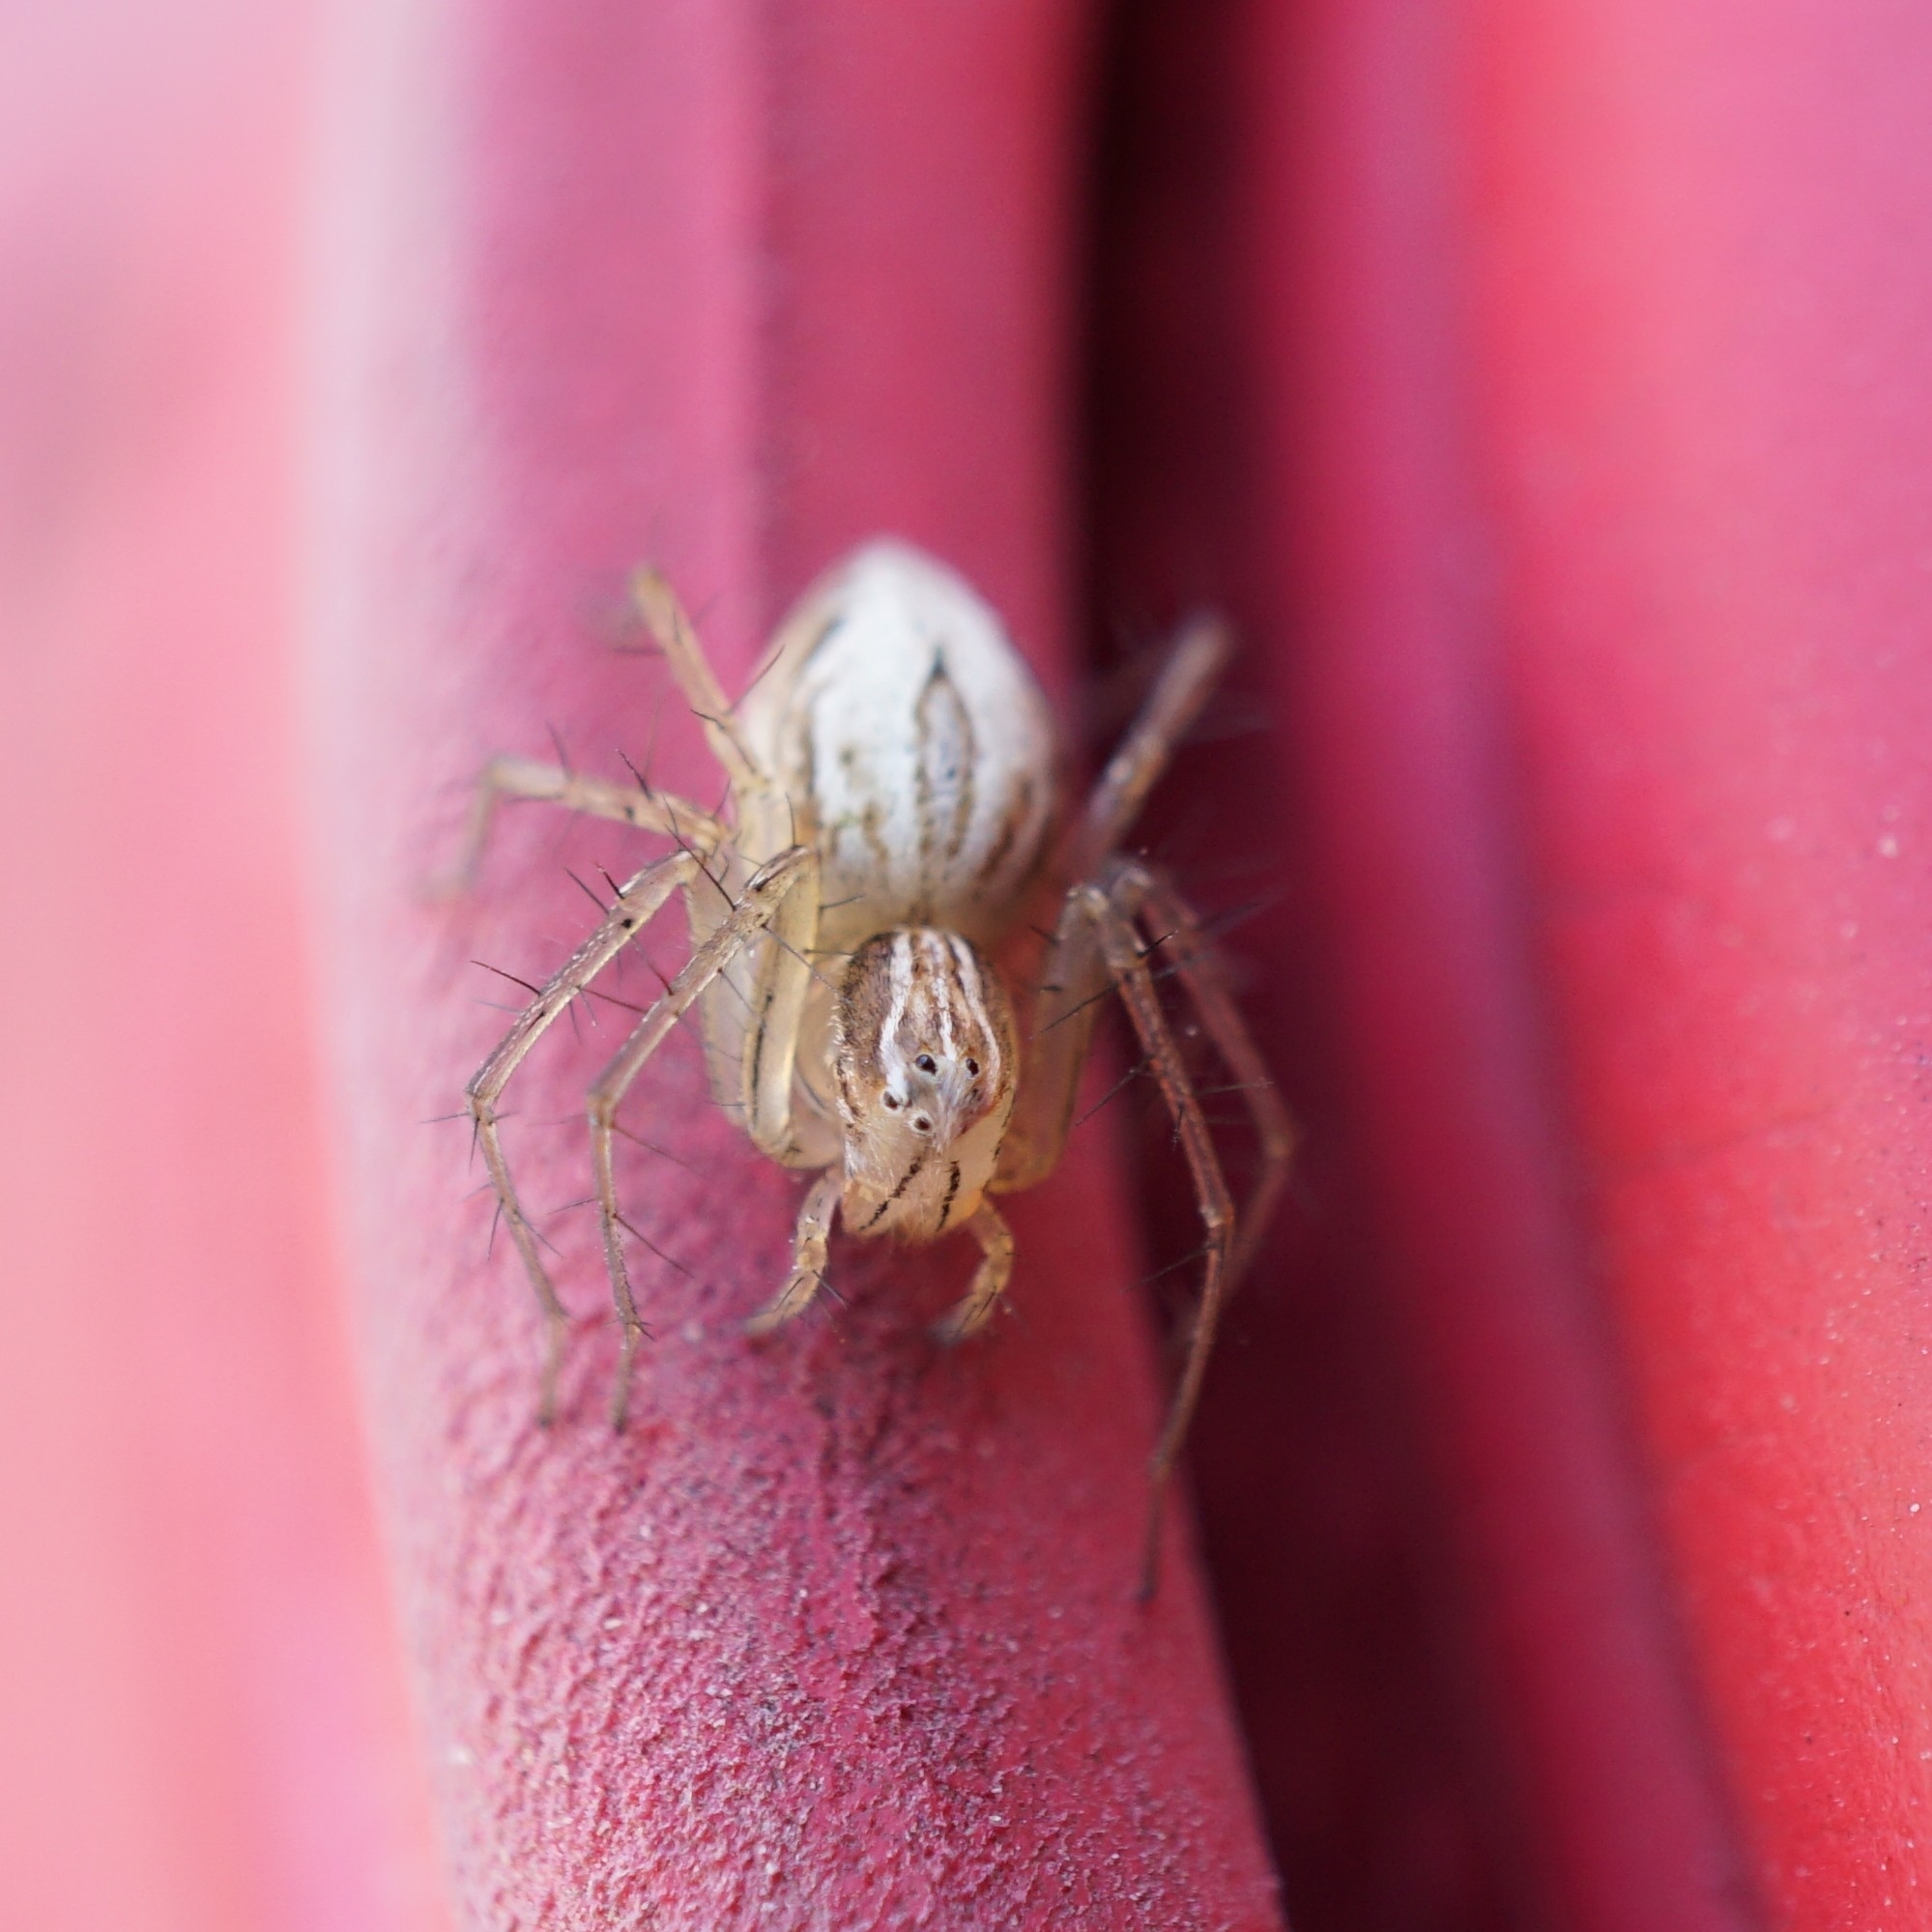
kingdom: Animalia
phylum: Arthropoda
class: Arachnida
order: Araneae
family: Oxyopidae
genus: Oxyopes
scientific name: Oxyopes salticus
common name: Lynx spiders
